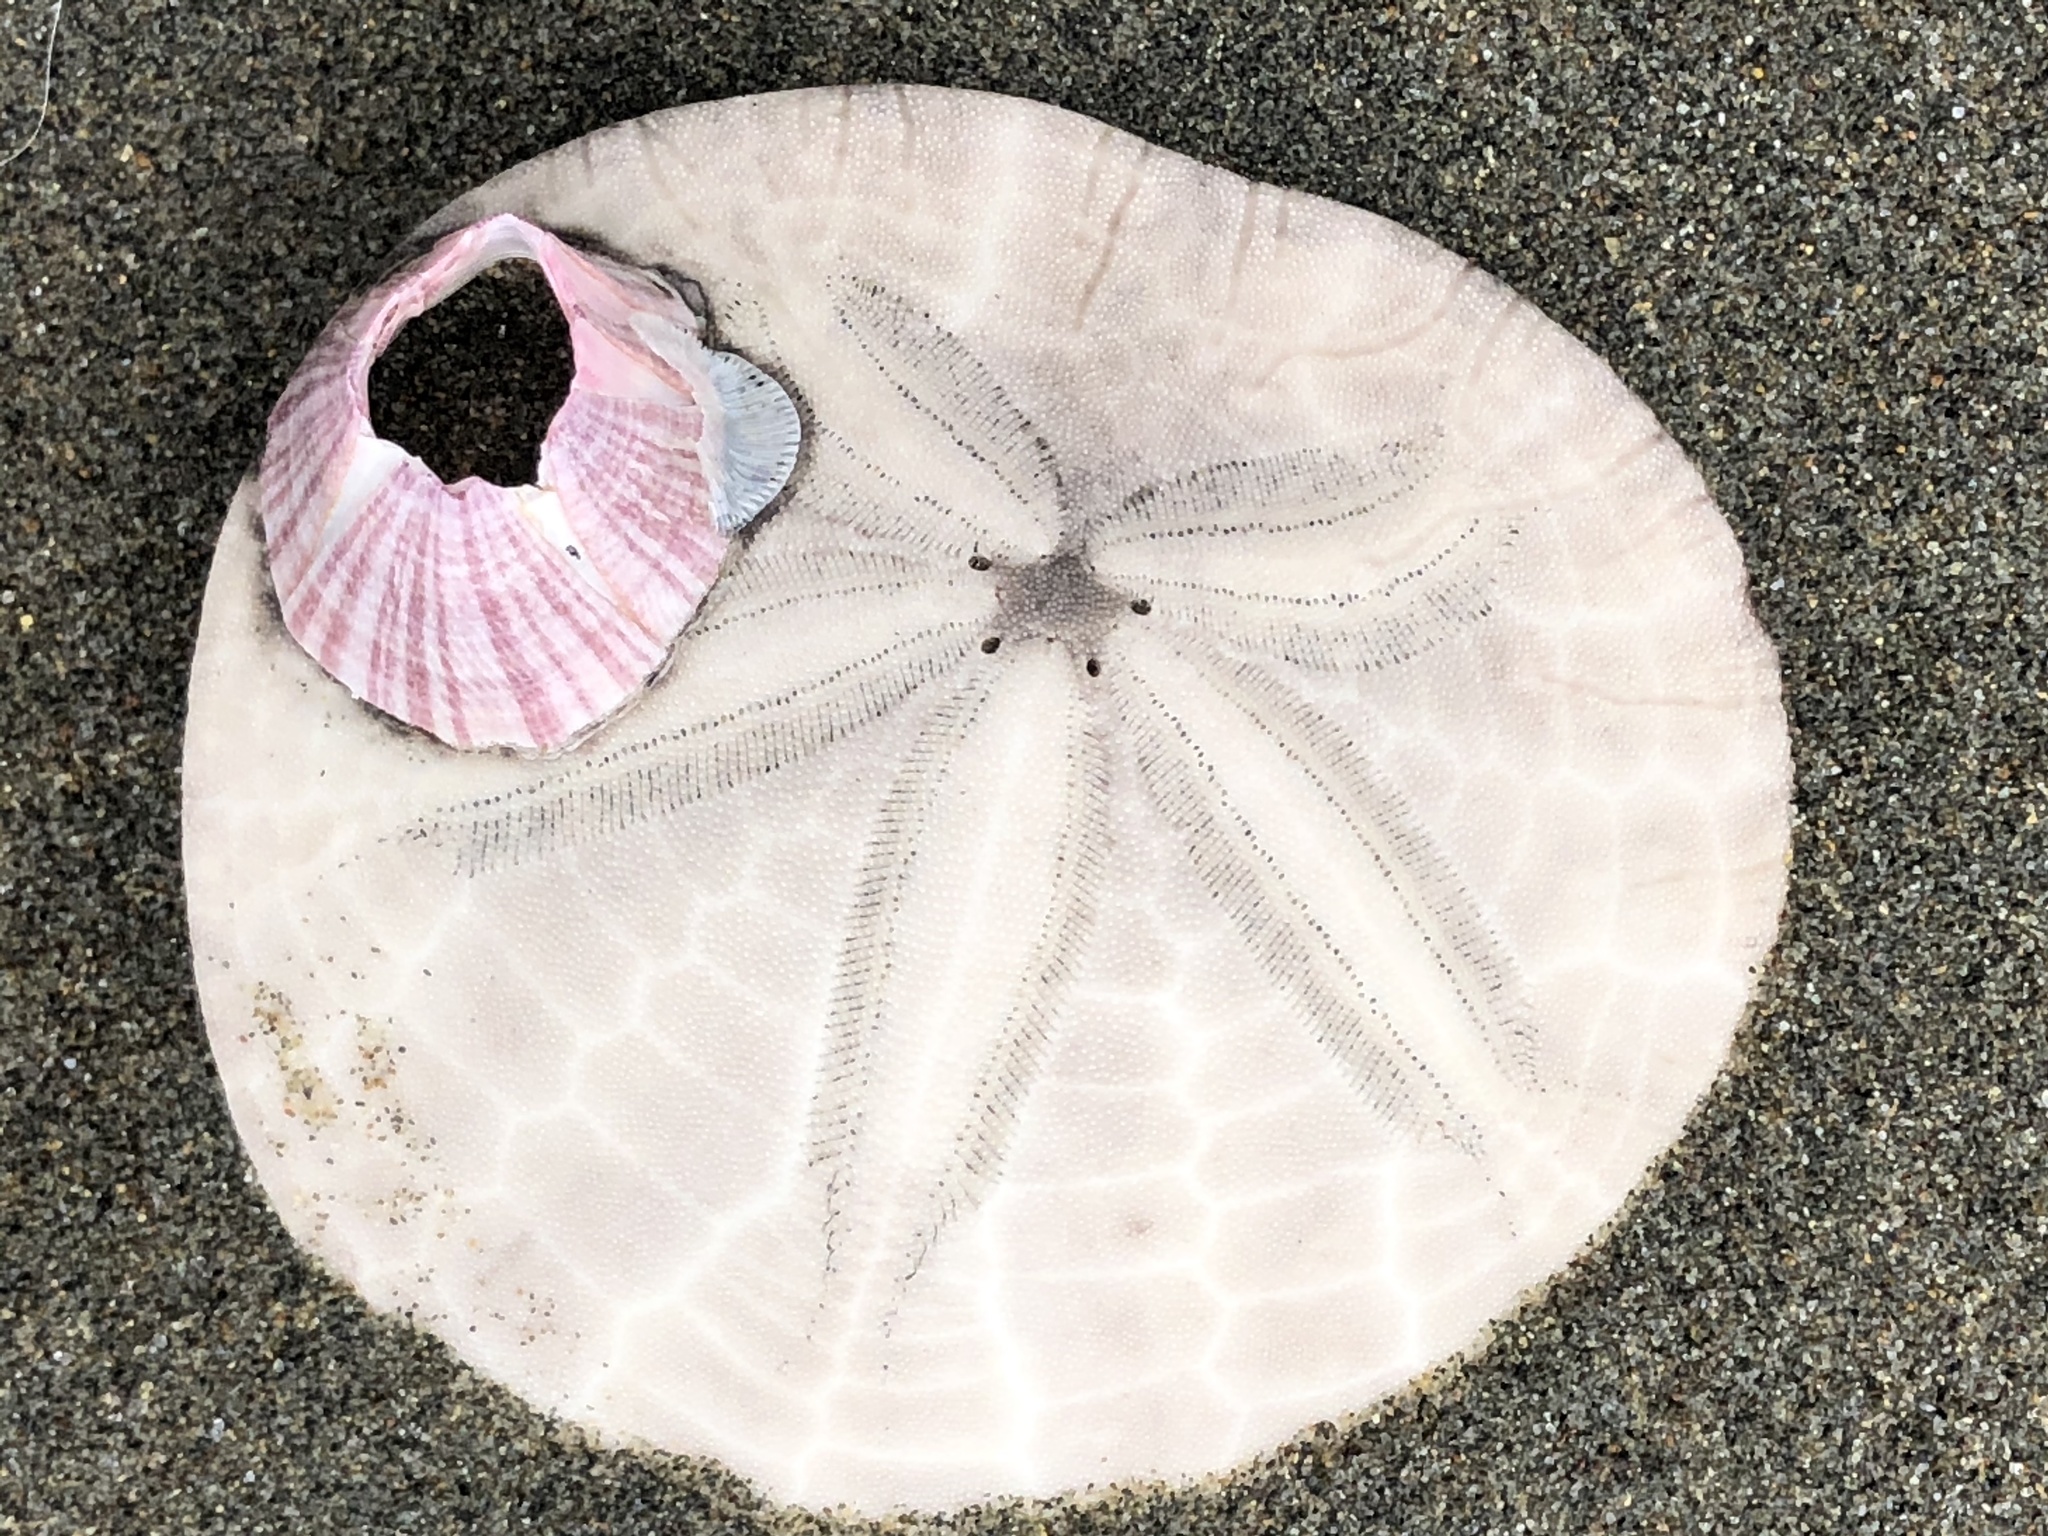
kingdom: Animalia
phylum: Arthropoda
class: Maxillopoda
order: Sessilia
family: Balanidae
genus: Paraconcavus
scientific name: Paraconcavus pacificus
